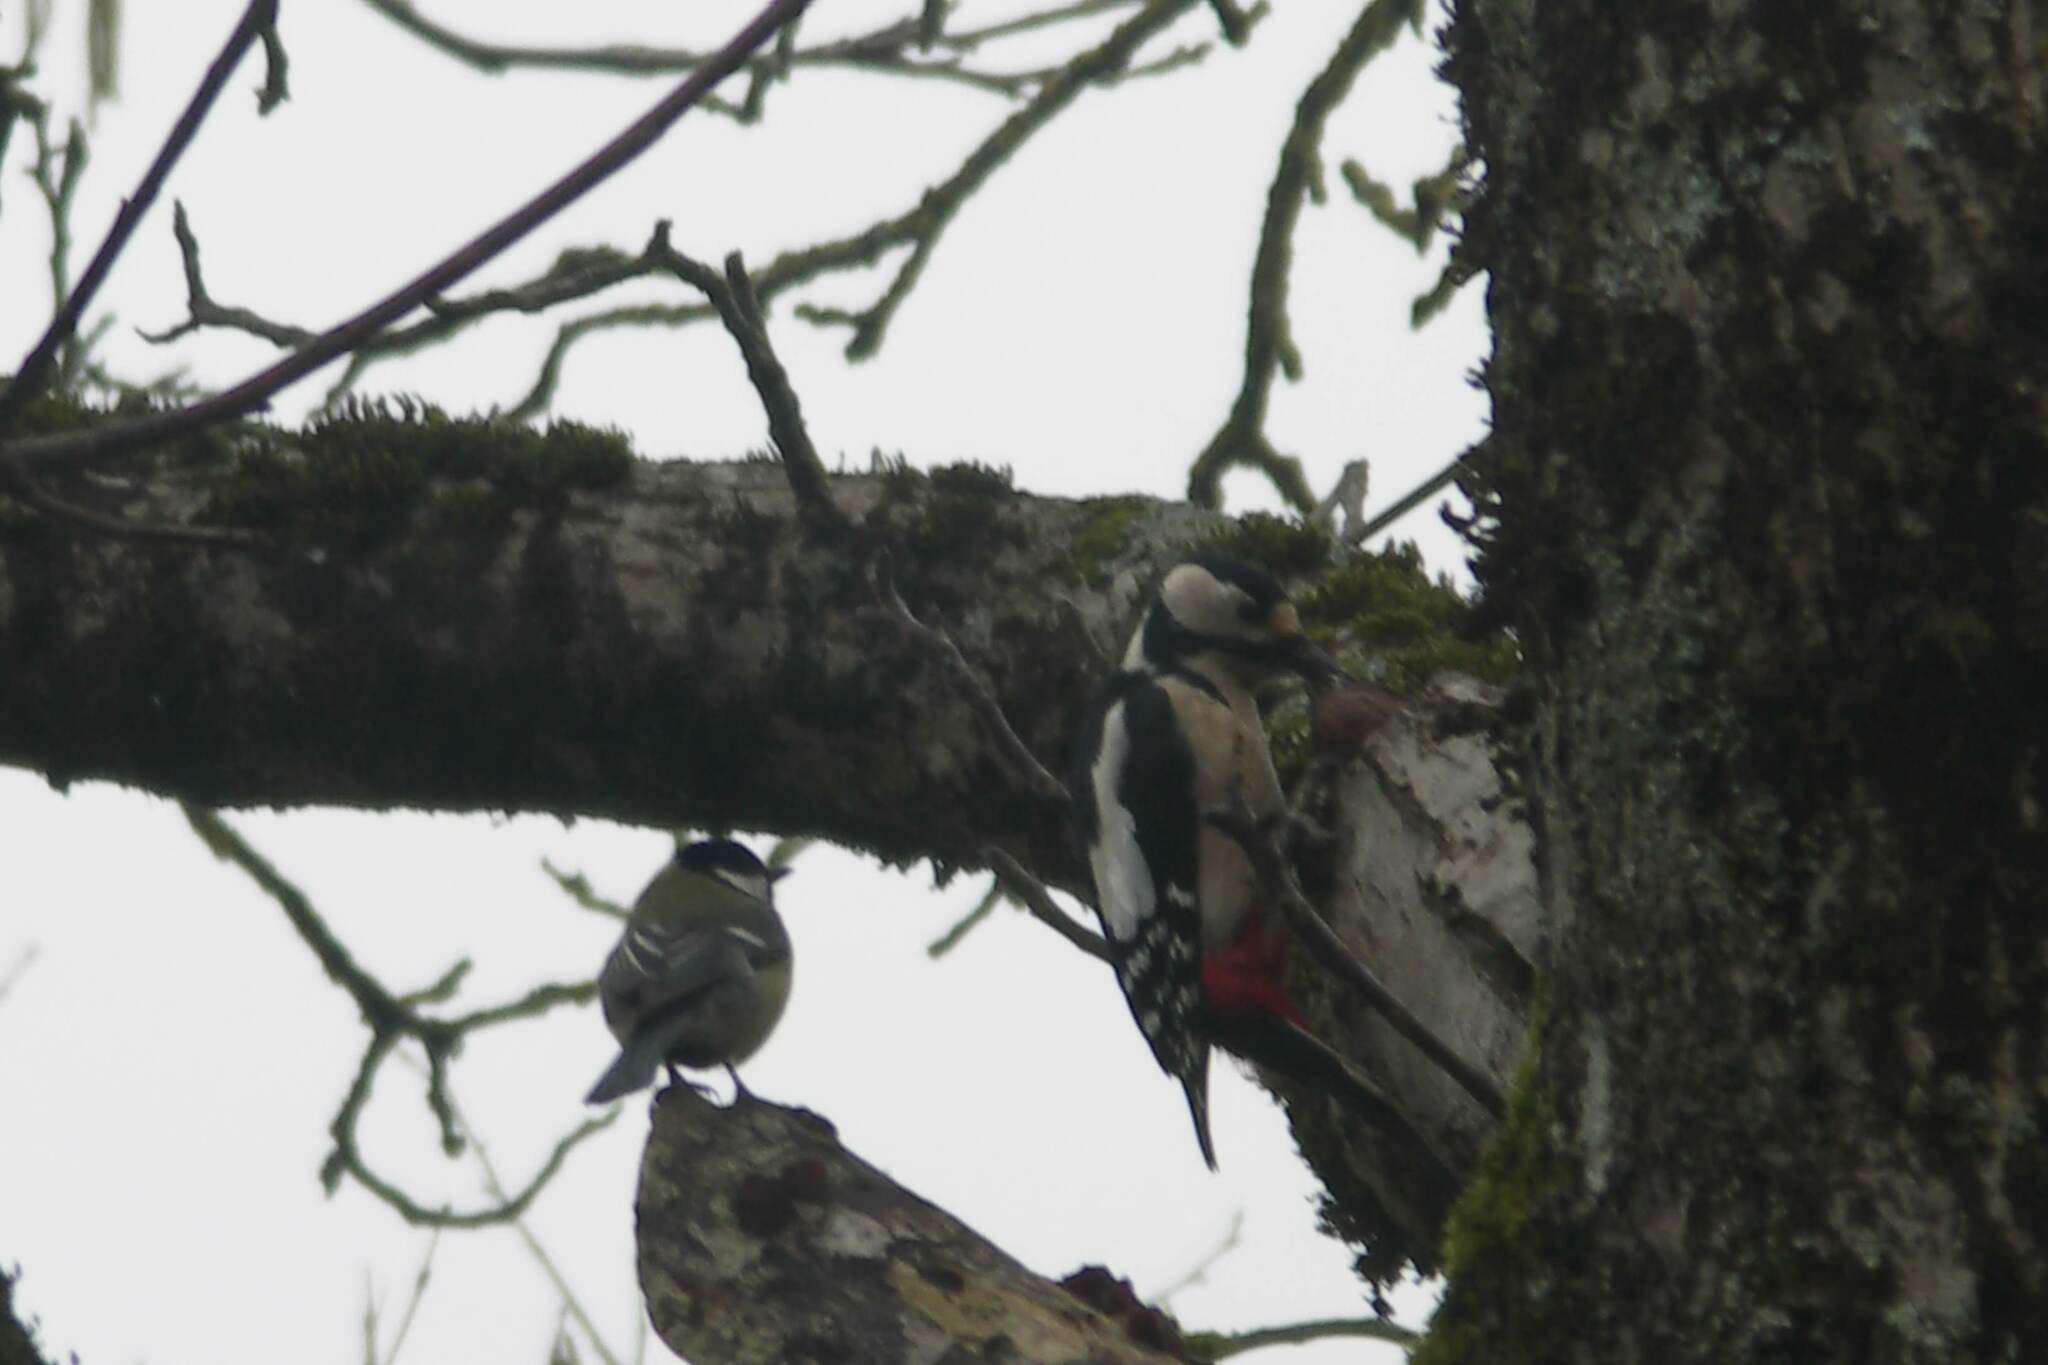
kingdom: Animalia
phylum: Chordata
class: Aves
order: Piciformes
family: Picidae
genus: Dendrocopos
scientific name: Dendrocopos major
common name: Great spotted woodpecker
